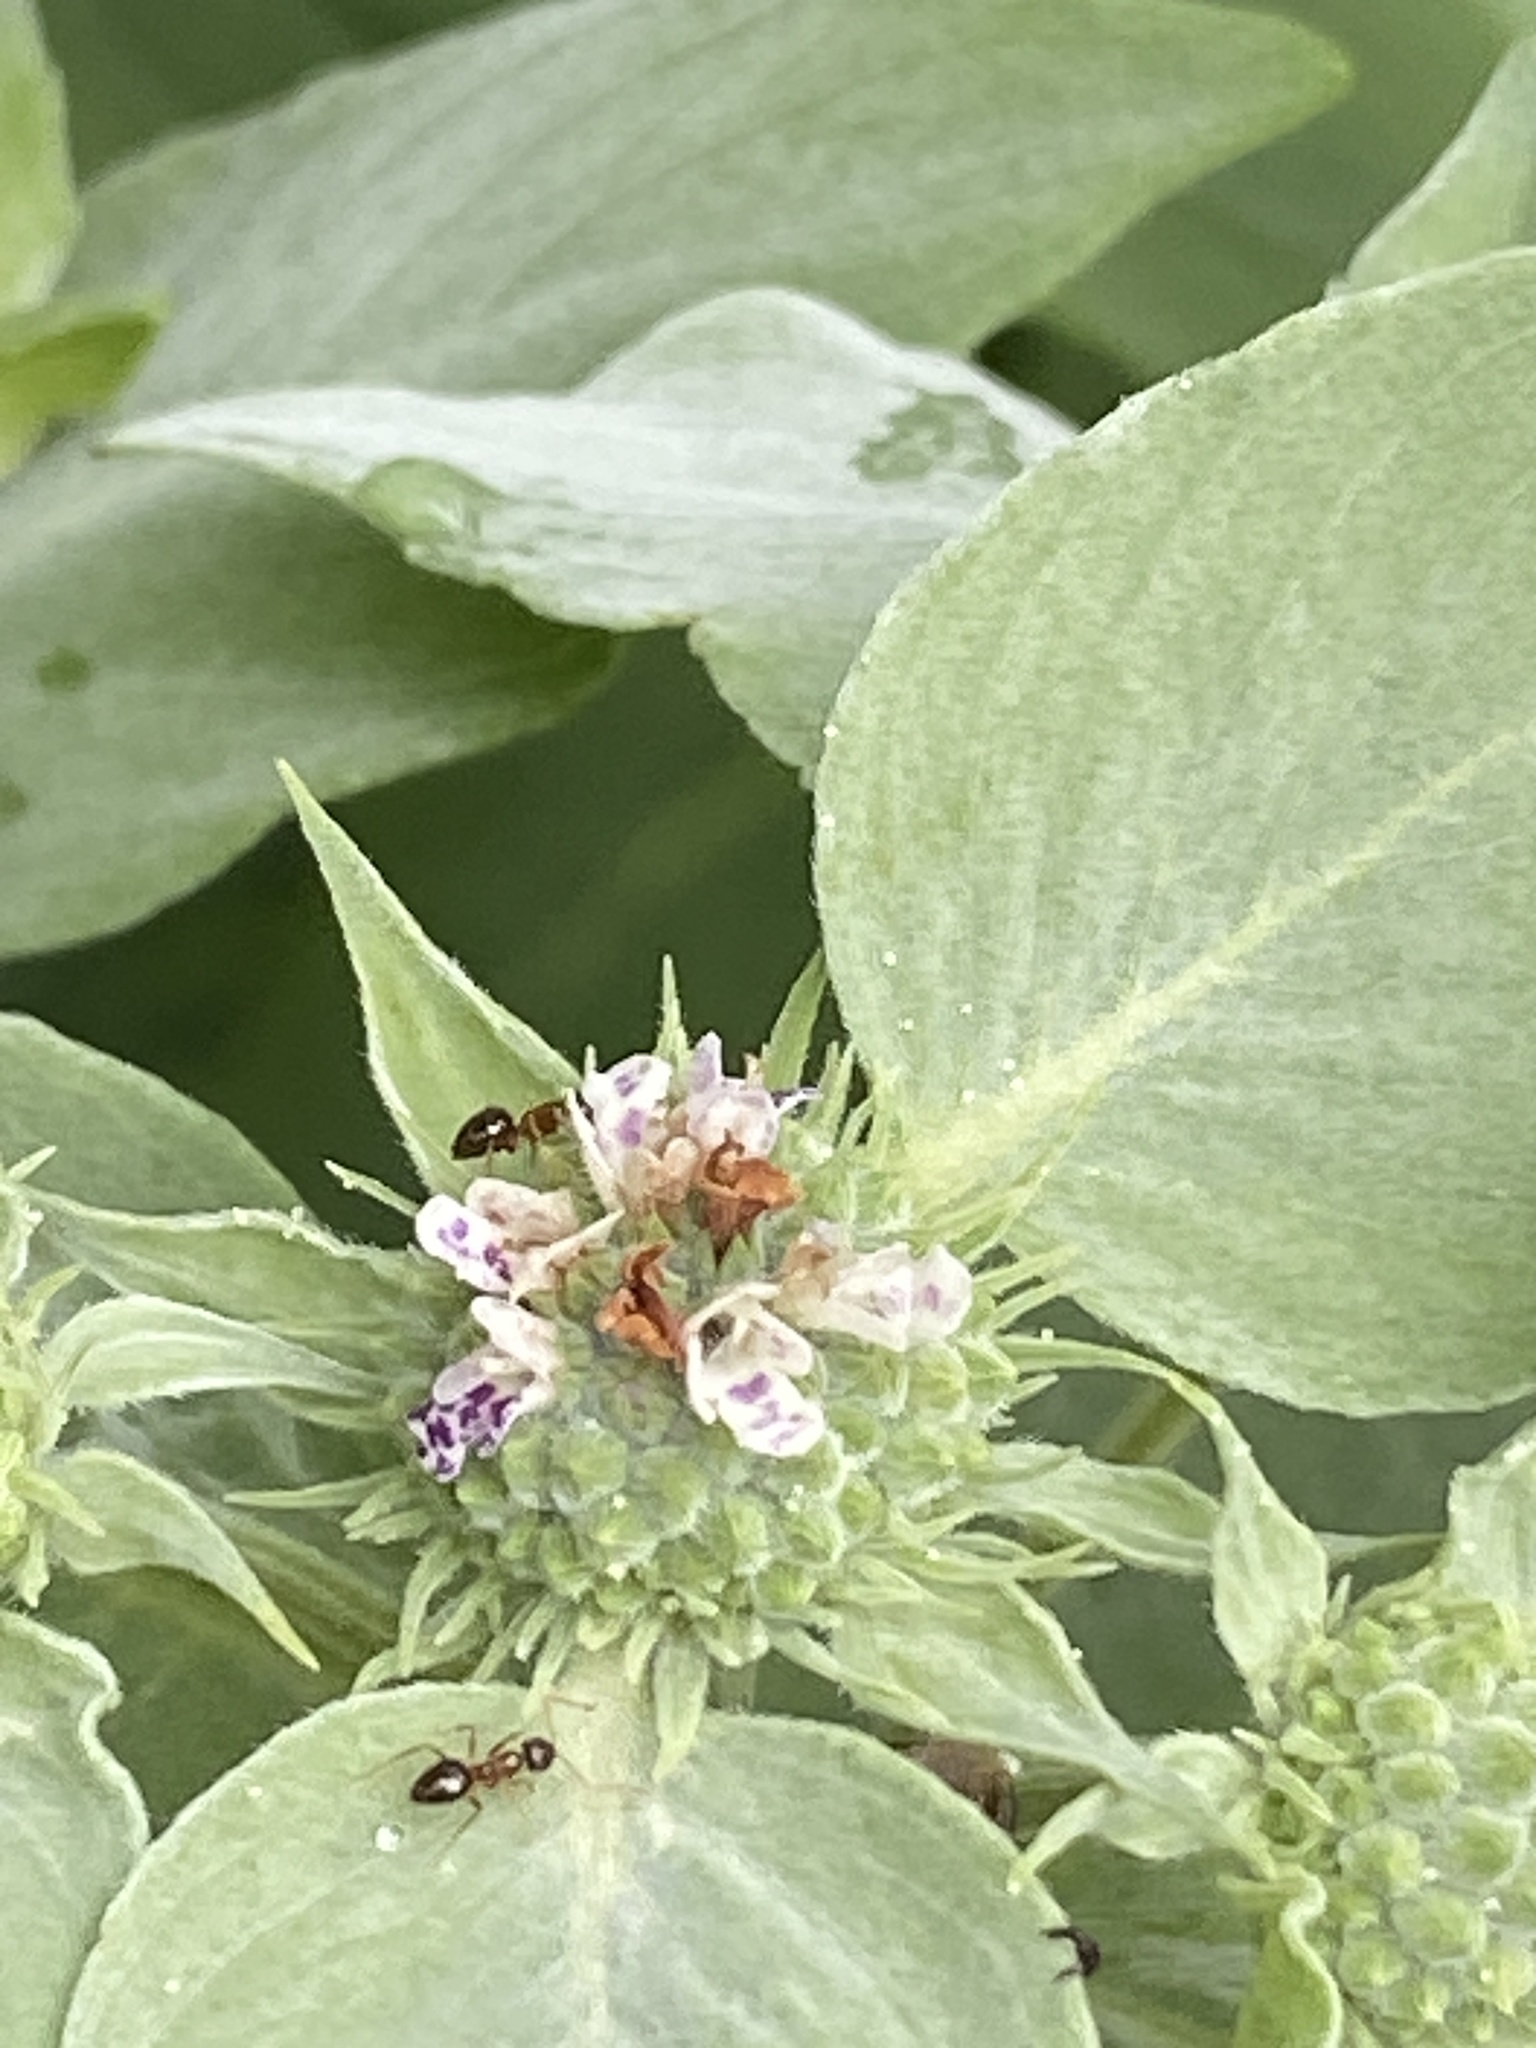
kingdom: Plantae
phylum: Tracheophyta
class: Magnoliopsida
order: Lamiales
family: Lamiaceae
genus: Pycnanthemum
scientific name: Pycnanthemum muticum
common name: Blunt mountain-mint
